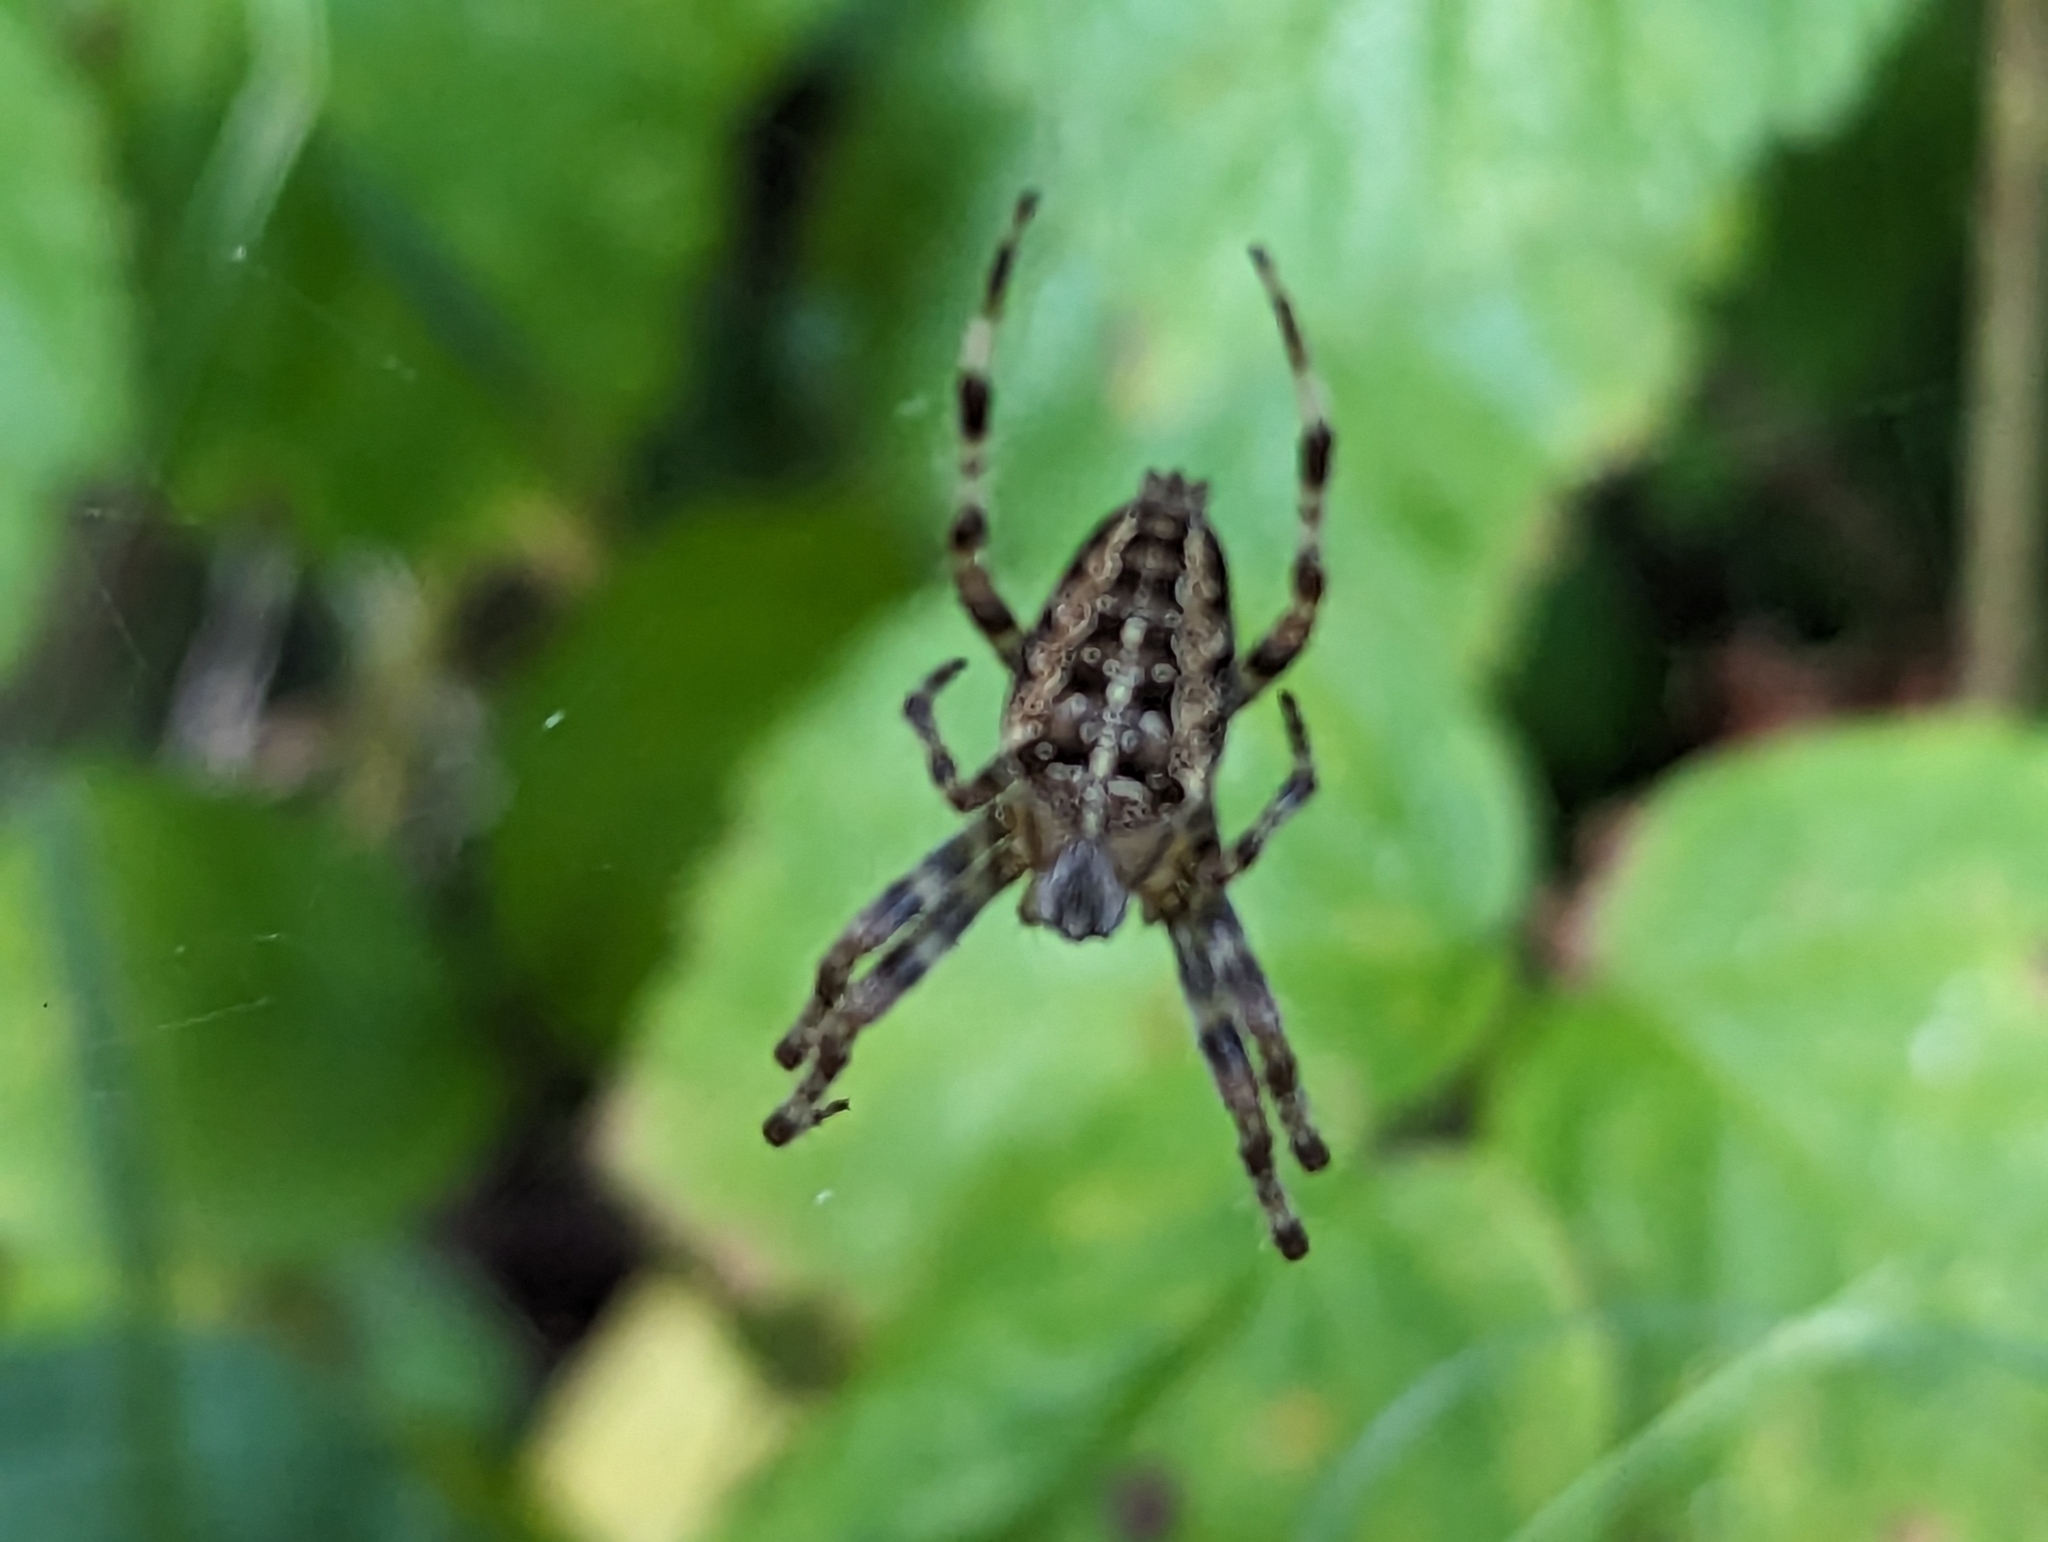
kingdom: Animalia
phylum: Arthropoda
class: Arachnida
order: Araneae
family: Araneidae
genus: Araneus
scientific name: Araneus diadematus
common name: Cross orbweaver
